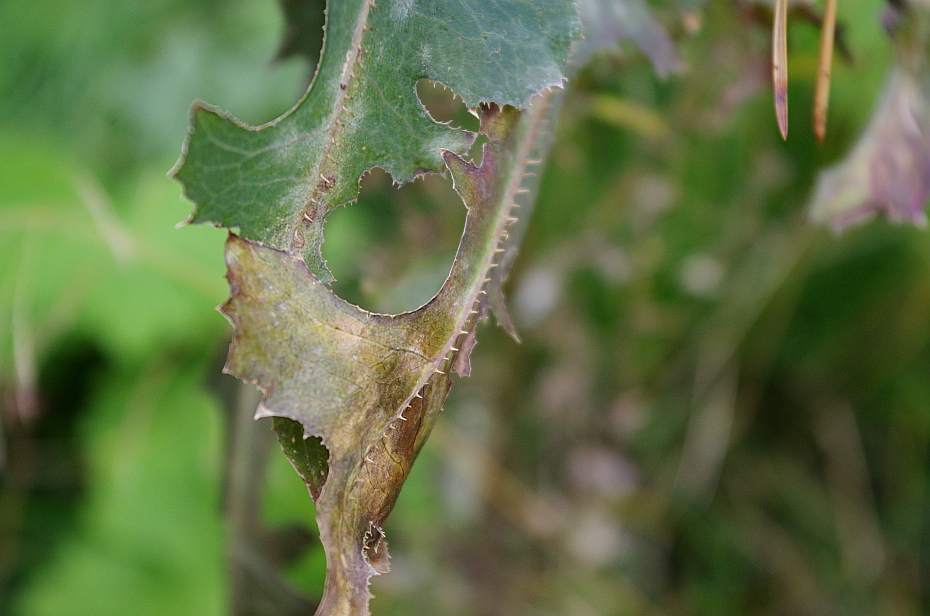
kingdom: Plantae
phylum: Tracheophyta
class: Magnoliopsida
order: Asterales
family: Asteraceae
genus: Lactuca
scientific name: Lactuca serriola
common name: Prickly lettuce
